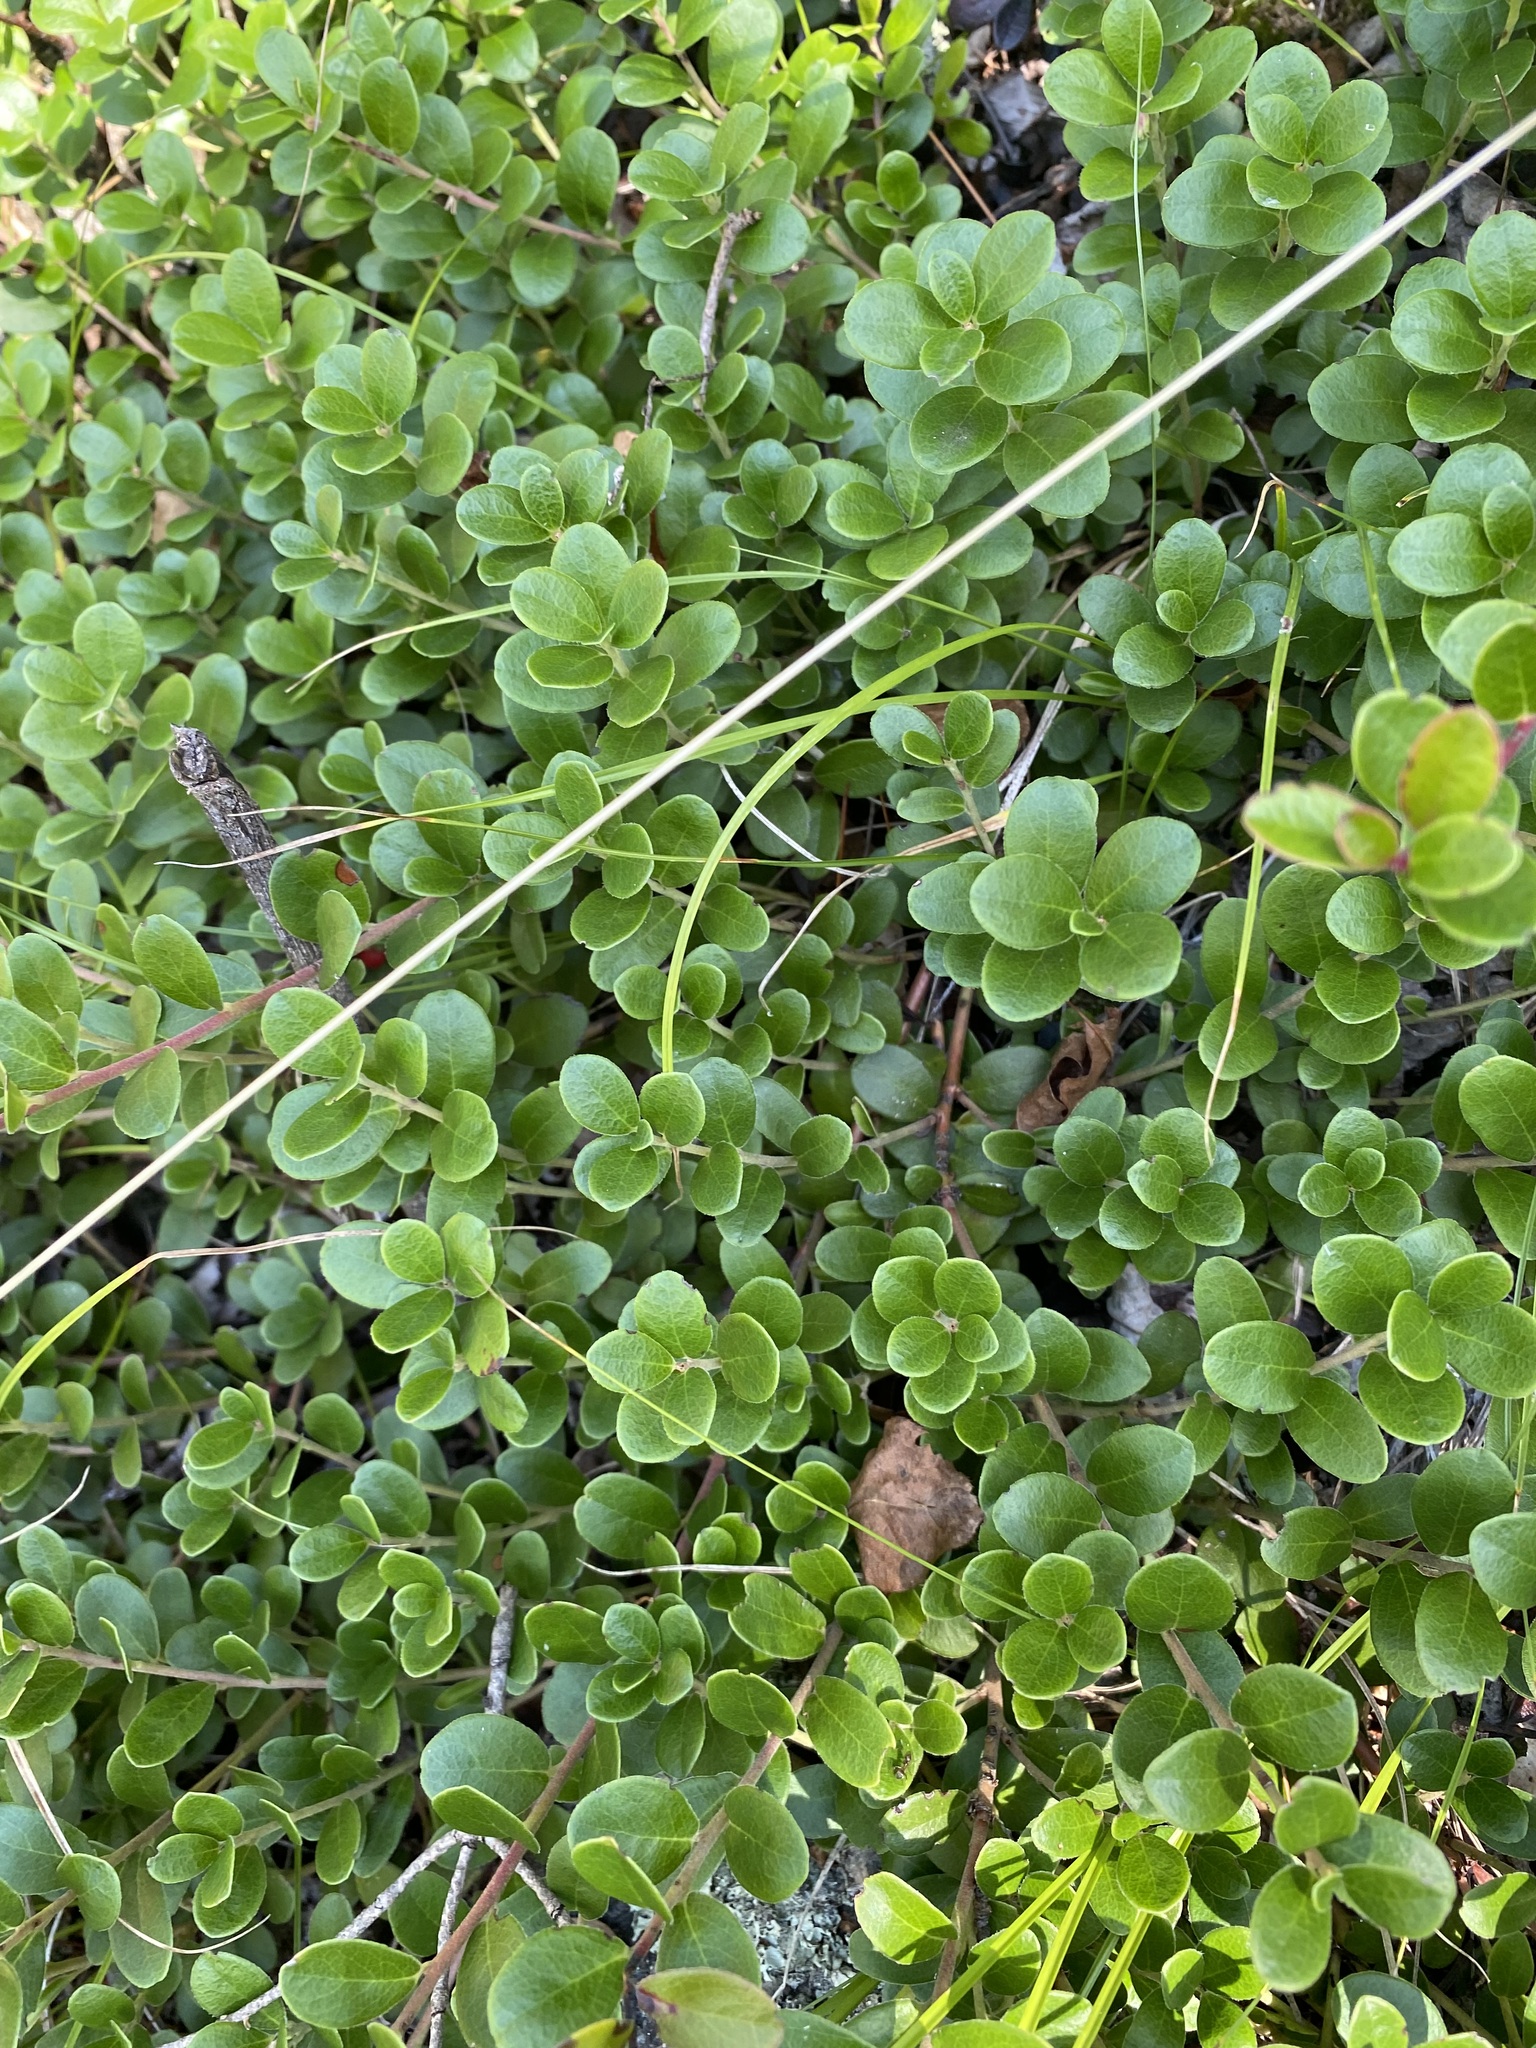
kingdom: Plantae
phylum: Tracheophyta
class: Magnoliopsida
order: Ericales
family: Ericaceae
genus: Arctostaphylos
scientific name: Arctostaphylos uva-ursi
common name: Bearberry
